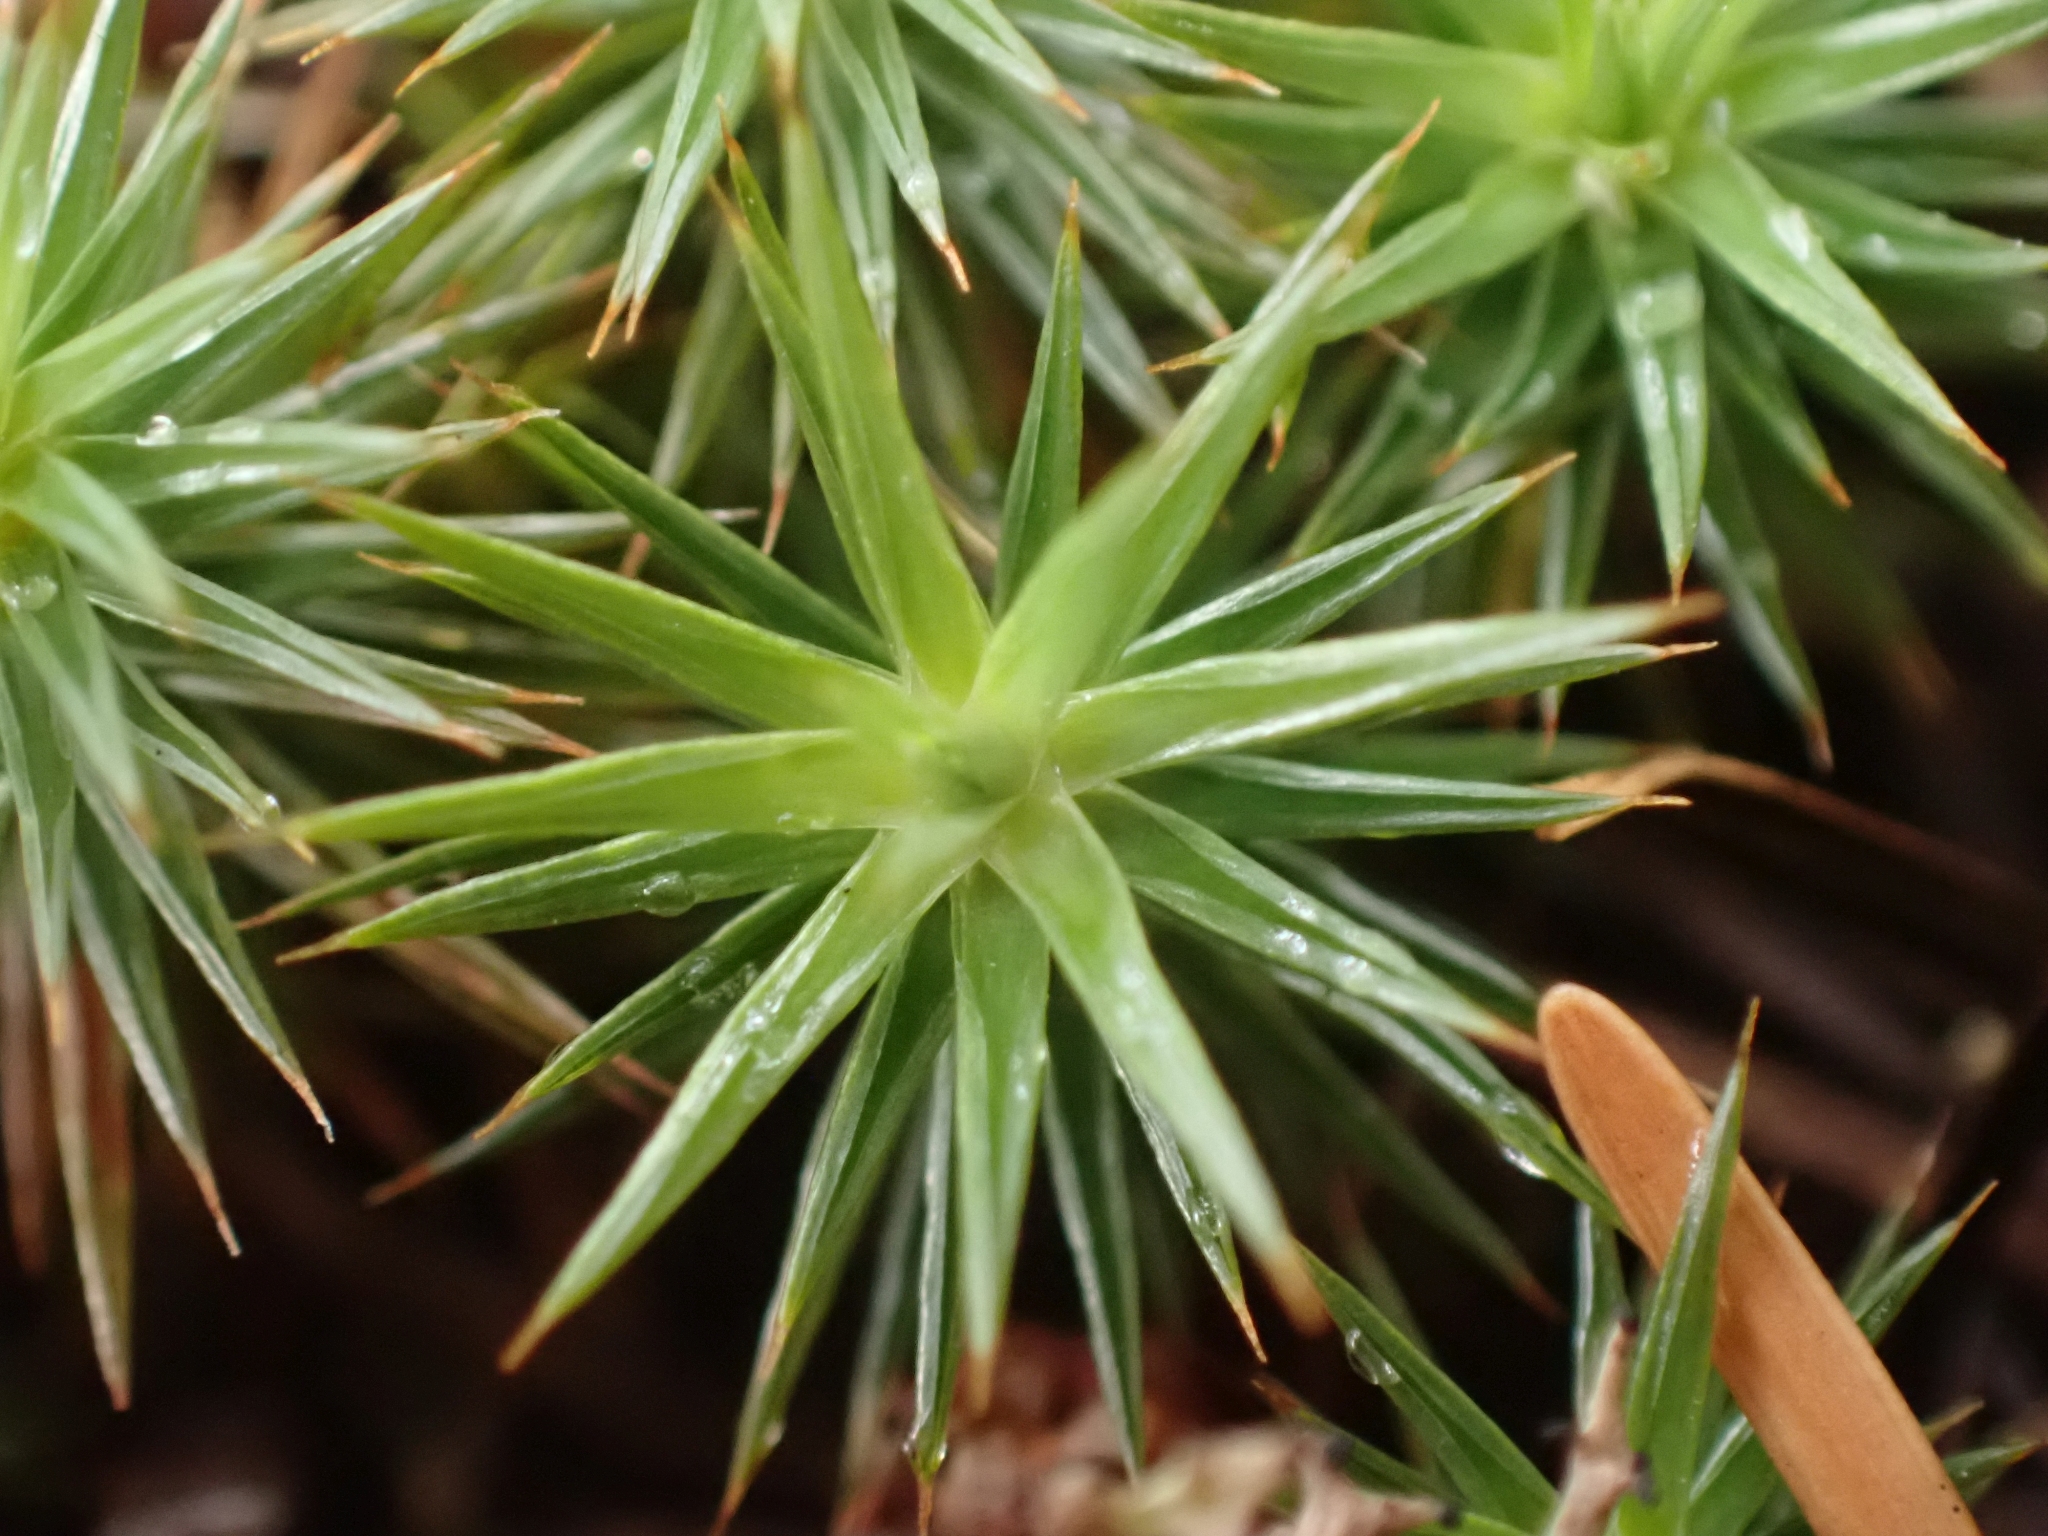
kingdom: Plantae
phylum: Bryophyta
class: Polytrichopsida
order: Polytrichales
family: Polytrichaceae
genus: Polytrichum
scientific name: Polytrichum juniperinum
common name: Juniper haircap moss
